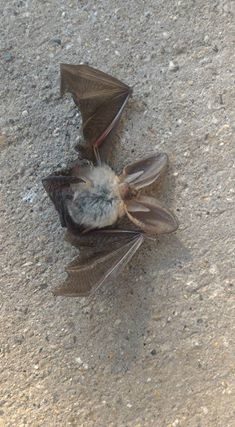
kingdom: Animalia
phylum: Chordata
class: Mammalia
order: Chiroptera
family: Vespertilionidae
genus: Plecotus
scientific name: Plecotus auritus
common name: Brown long-eared bat
